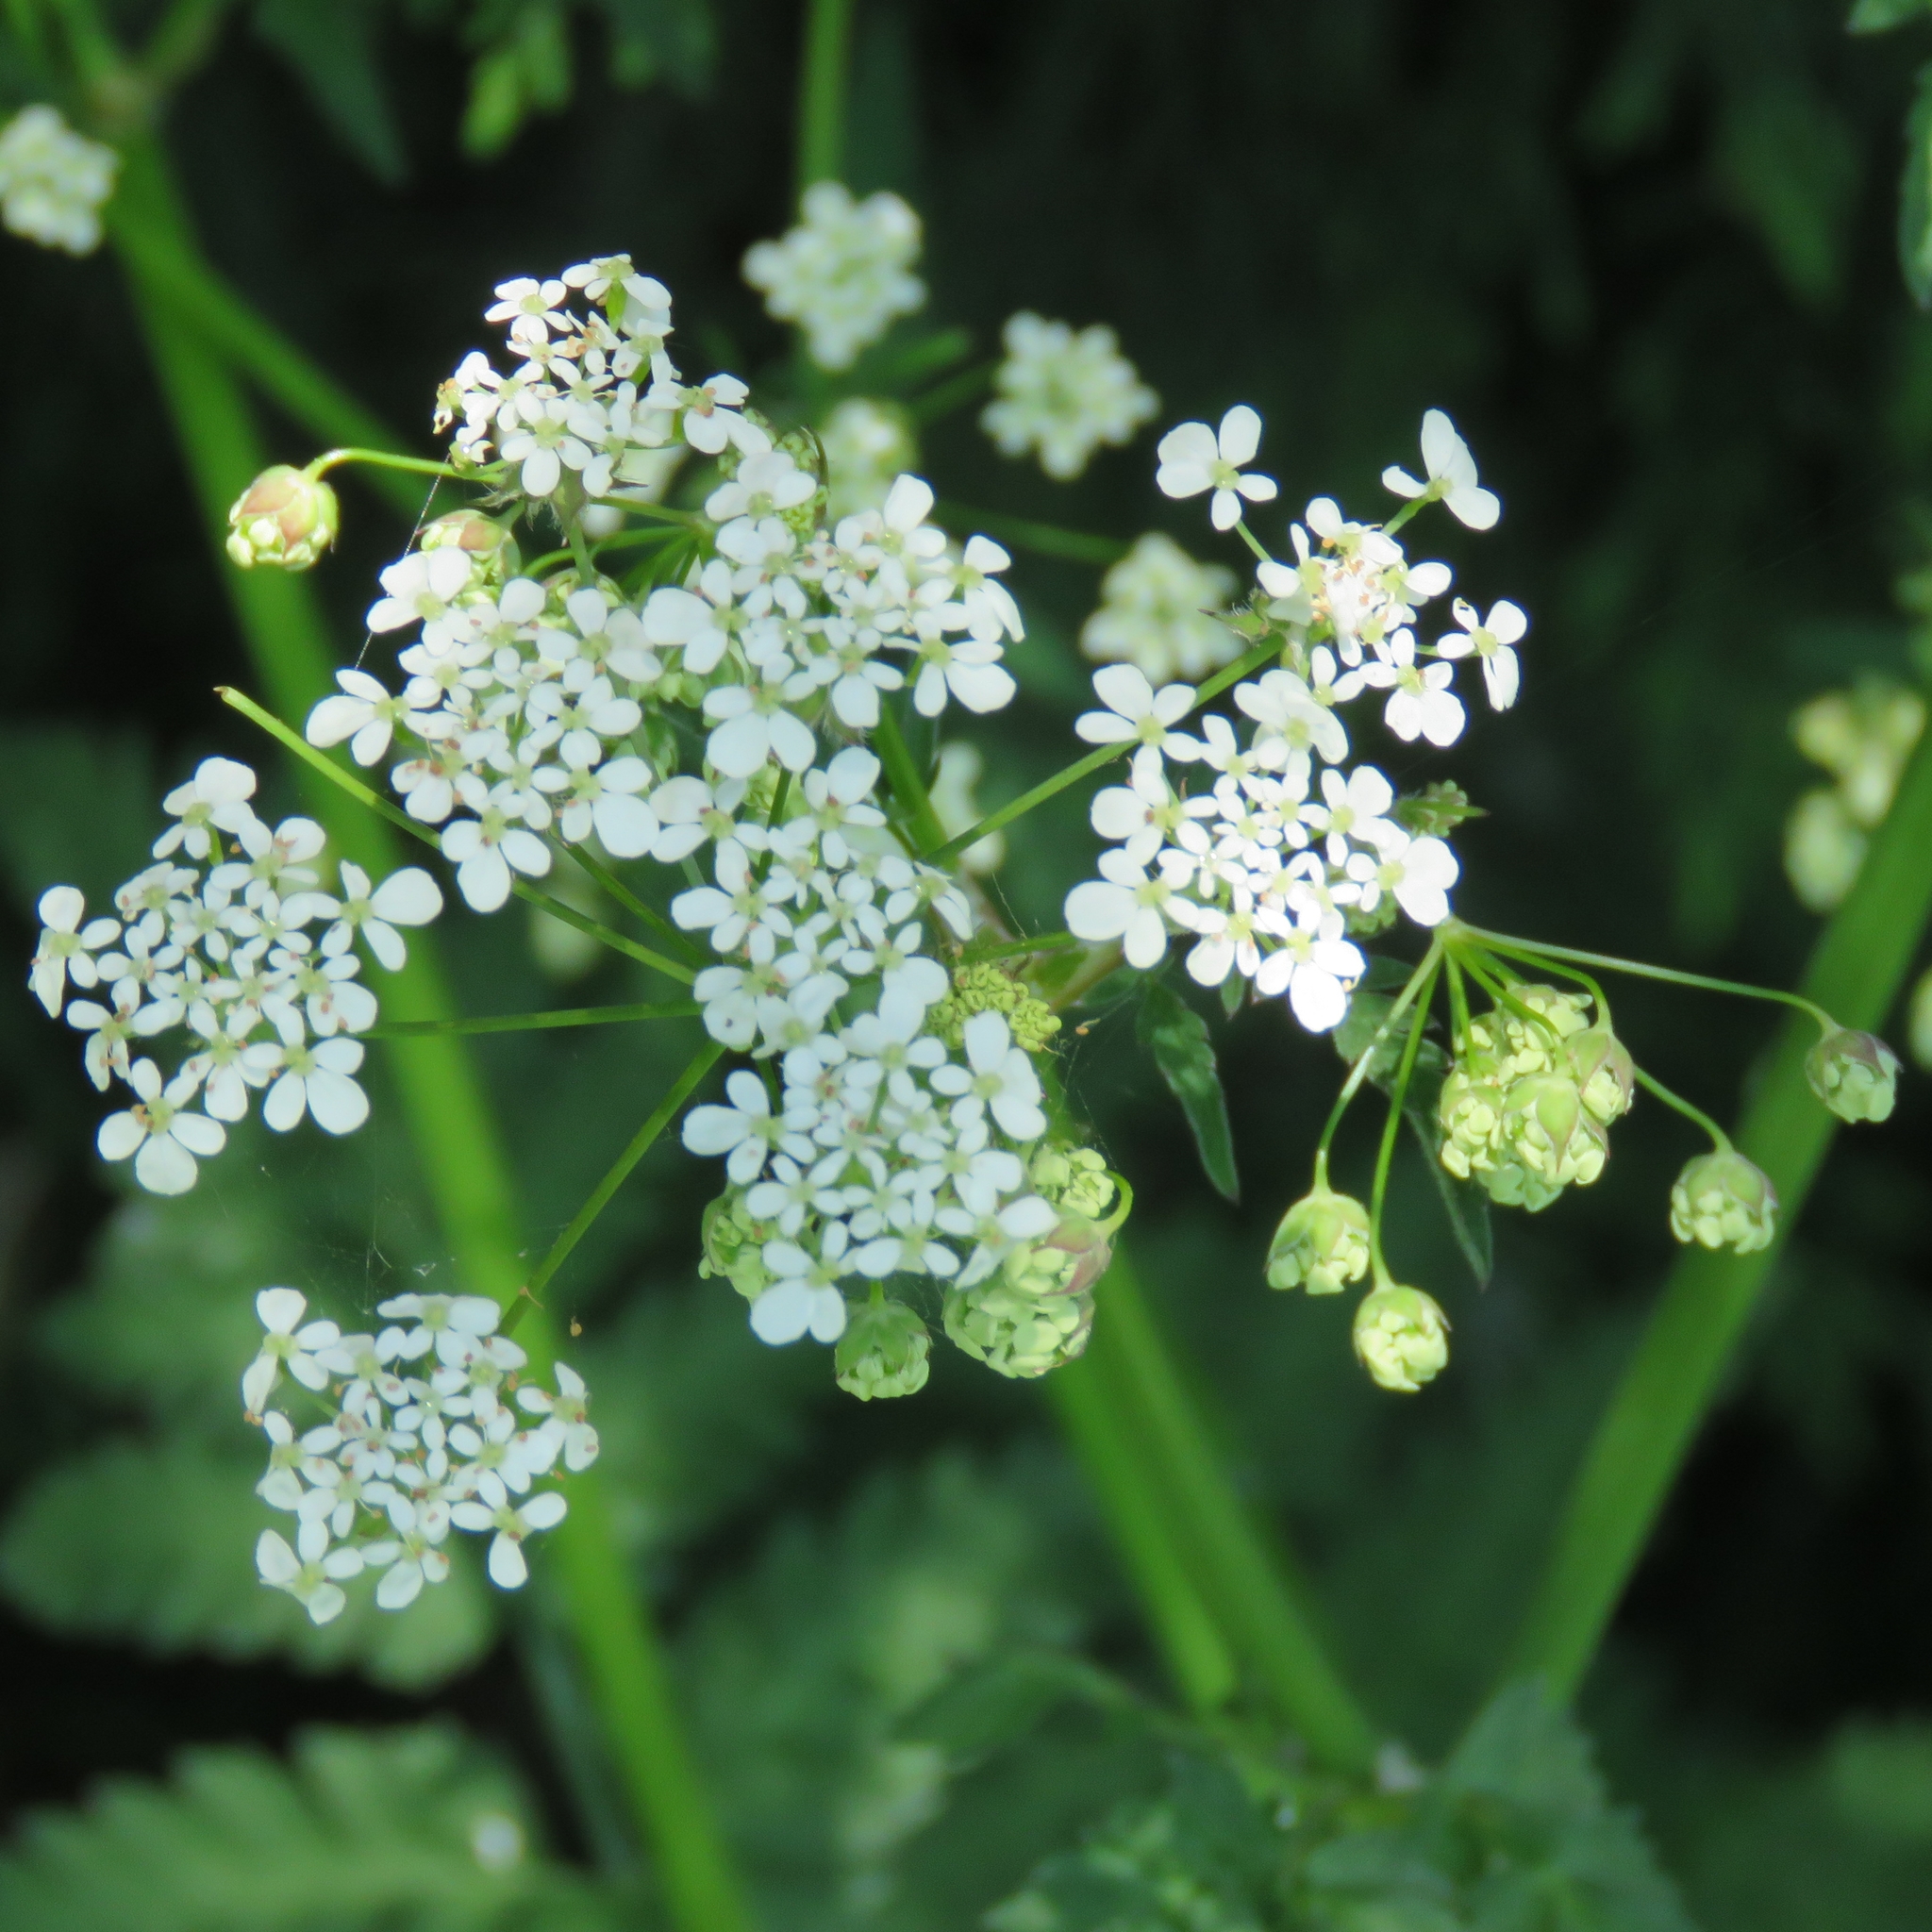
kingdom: Plantae
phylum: Tracheophyta
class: Magnoliopsida
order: Apiales
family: Apiaceae
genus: Anthriscus
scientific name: Anthriscus sylvestris
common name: Cow parsley
